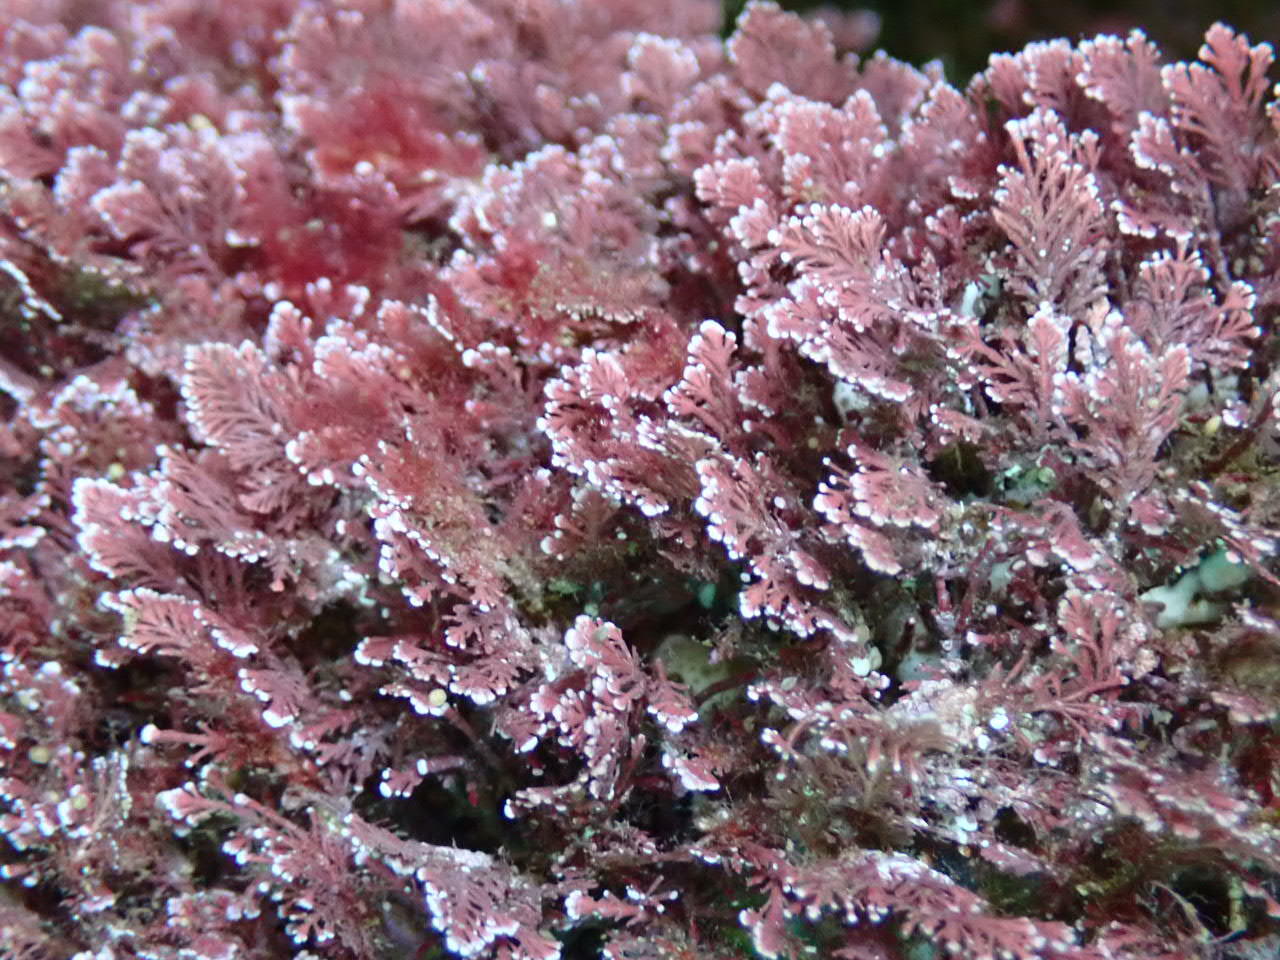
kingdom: Plantae
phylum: Rhodophyta
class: Florideophyceae
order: Corallinales
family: Corallinaceae
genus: Ellisolandia
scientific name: Ellisolandia elongata
